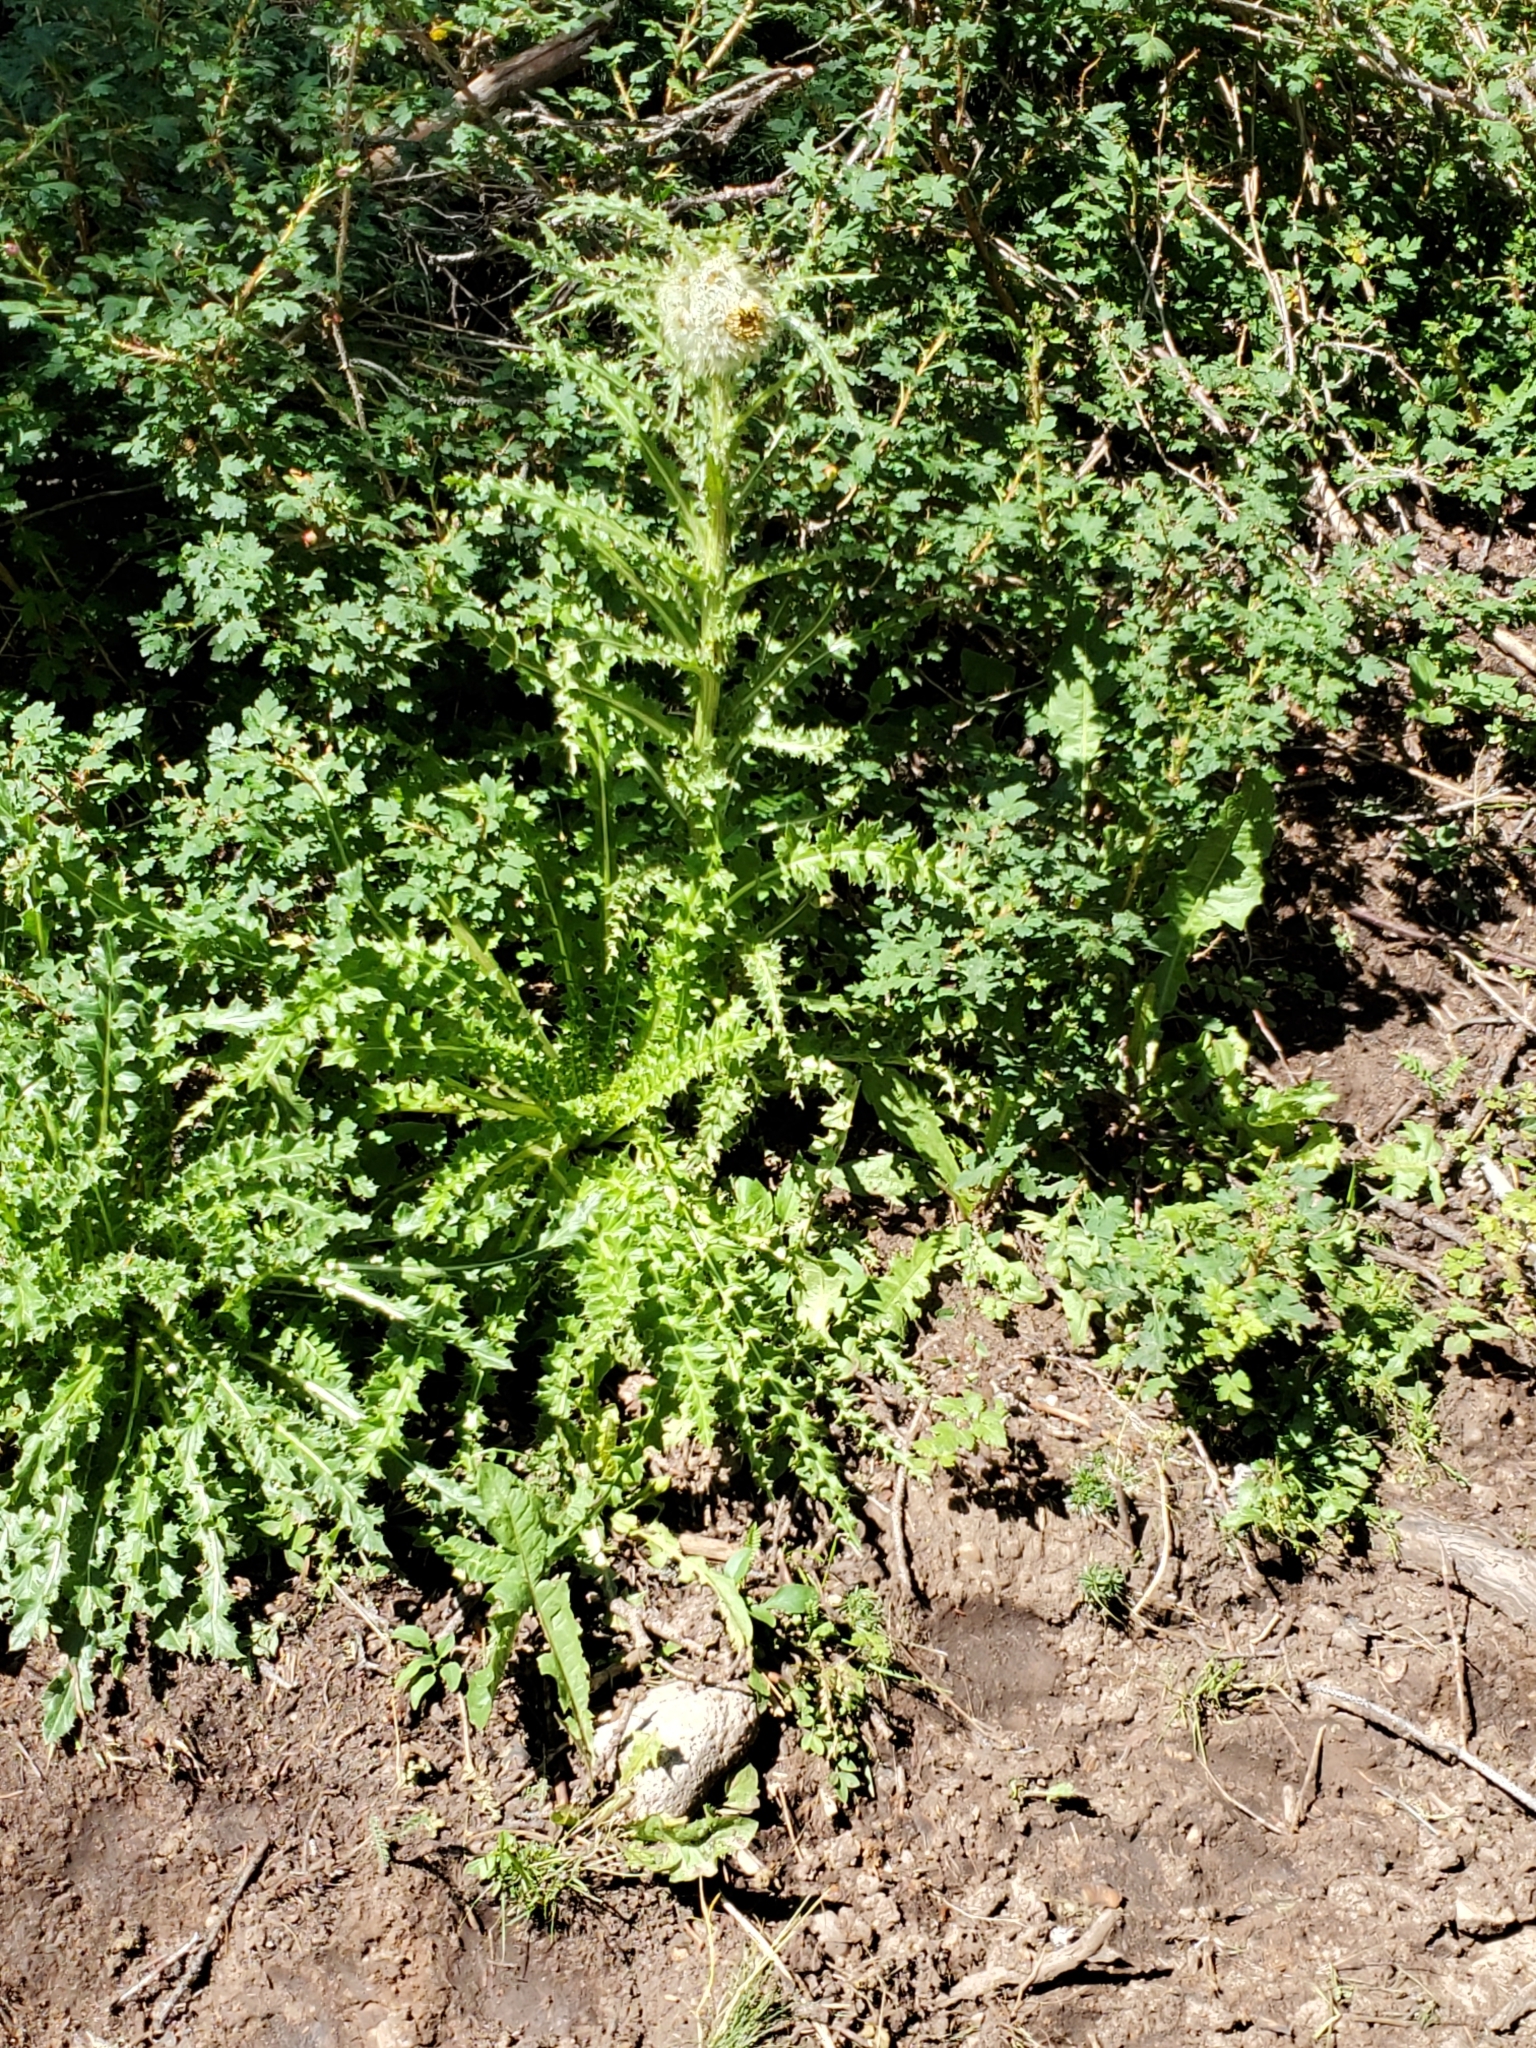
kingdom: Plantae
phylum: Tracheophyta
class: Magnoliopsida
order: Asterales
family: Asteraceae
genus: Cirsium
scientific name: Cirsium funkiae
